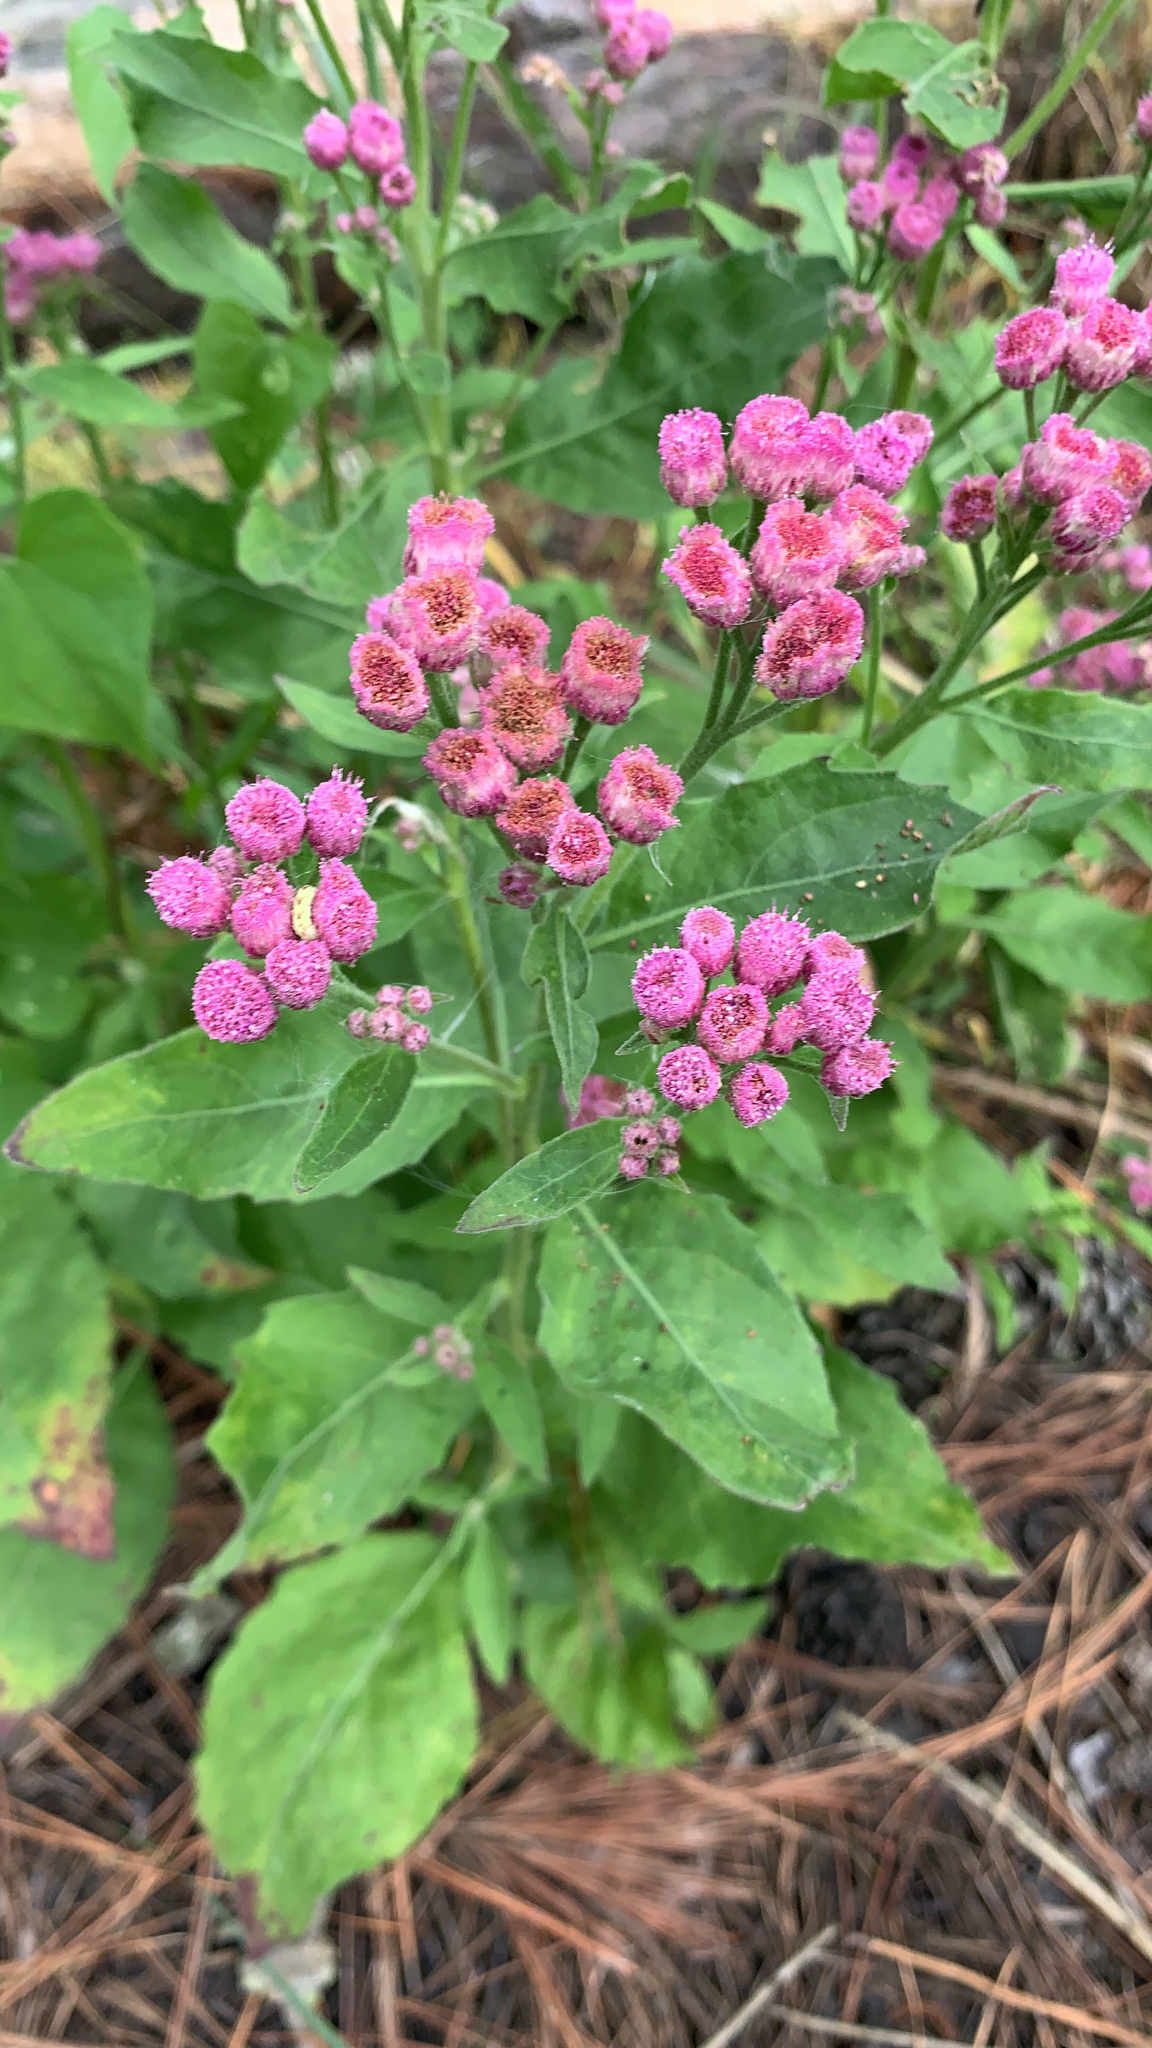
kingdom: Plantae
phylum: Tracheophyta
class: Magnoliopsida
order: Asterales
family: Asteraceae
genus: Pluchea
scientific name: Pluchea odorata
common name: Saltmarsh fleabane
